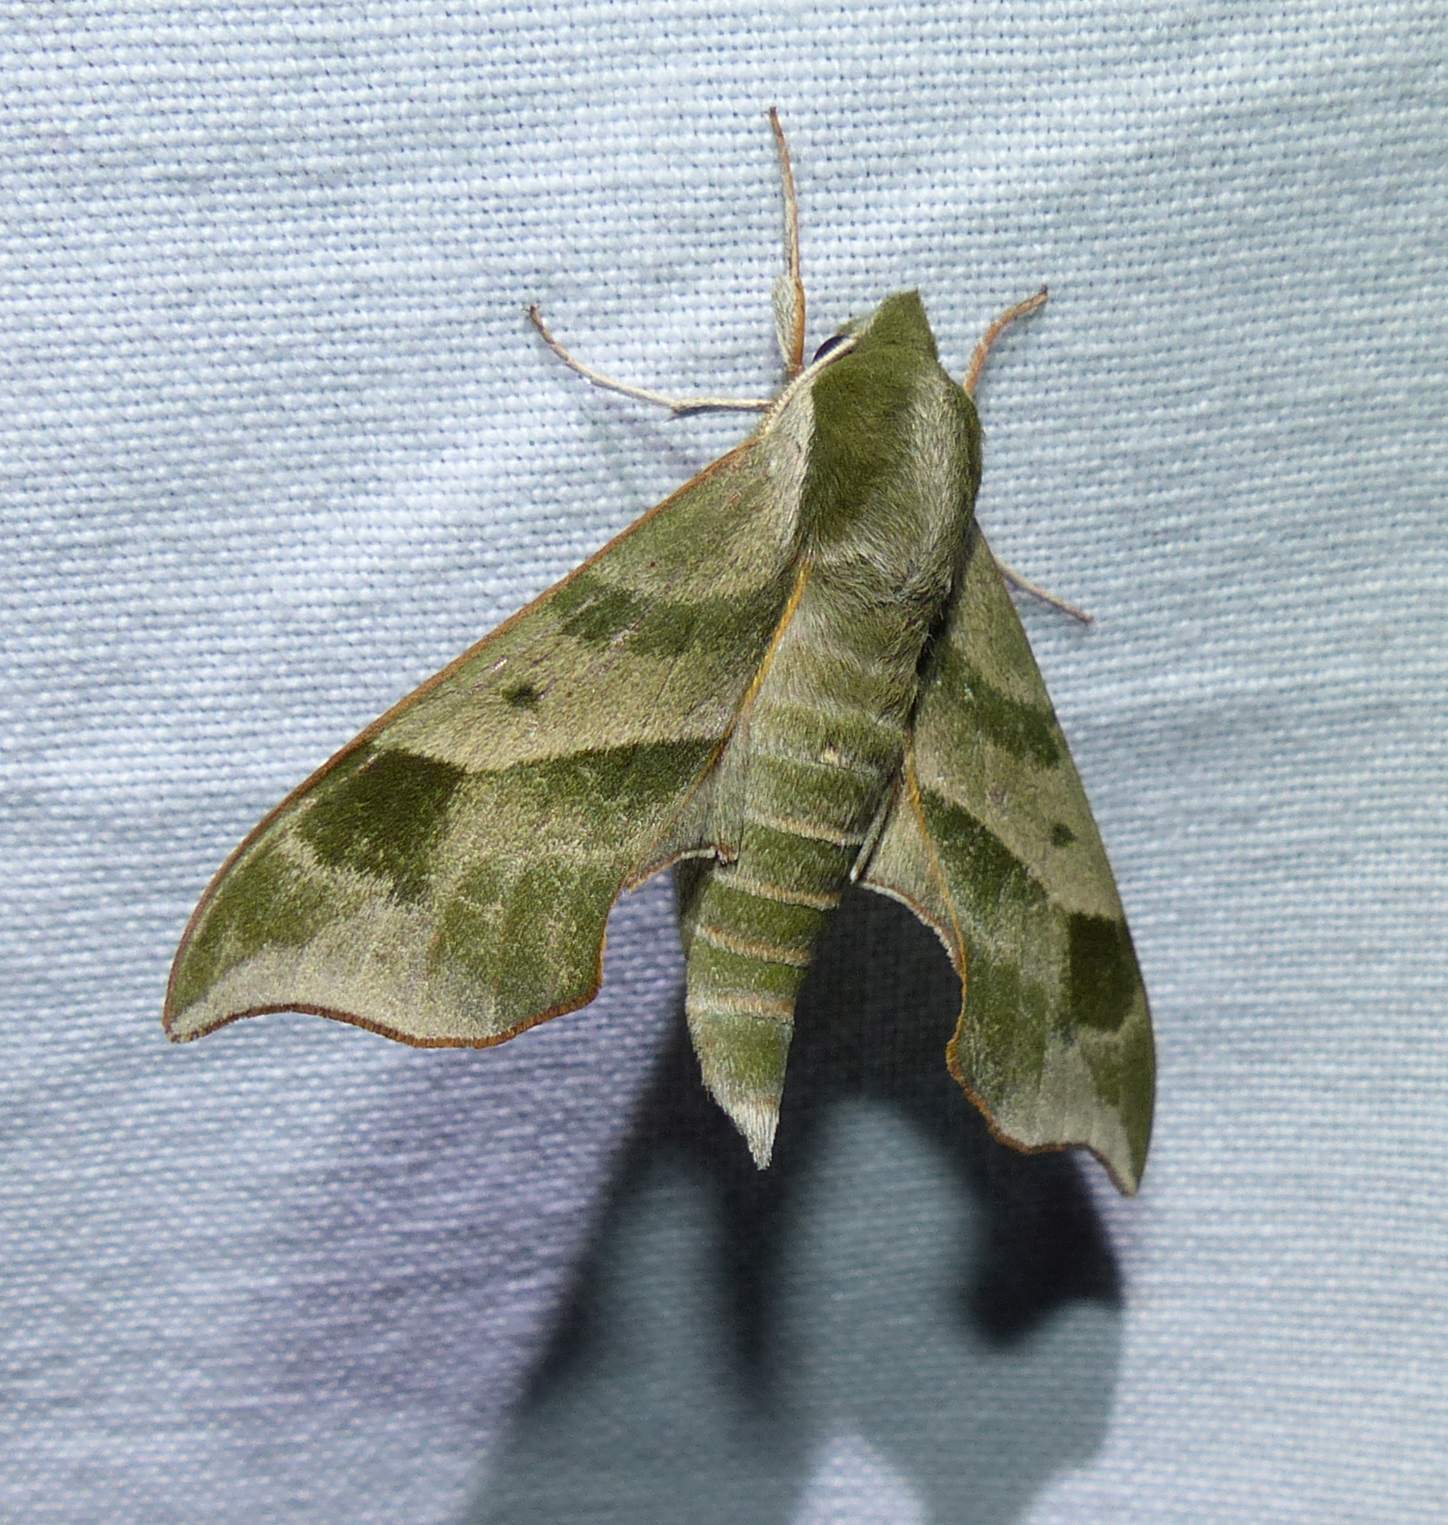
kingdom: Animalia
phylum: Arthropoda
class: Insecta
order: Lepidoptera
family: Sphingidae
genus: Darapsa
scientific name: Darapsa myron
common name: Hog sphinx
